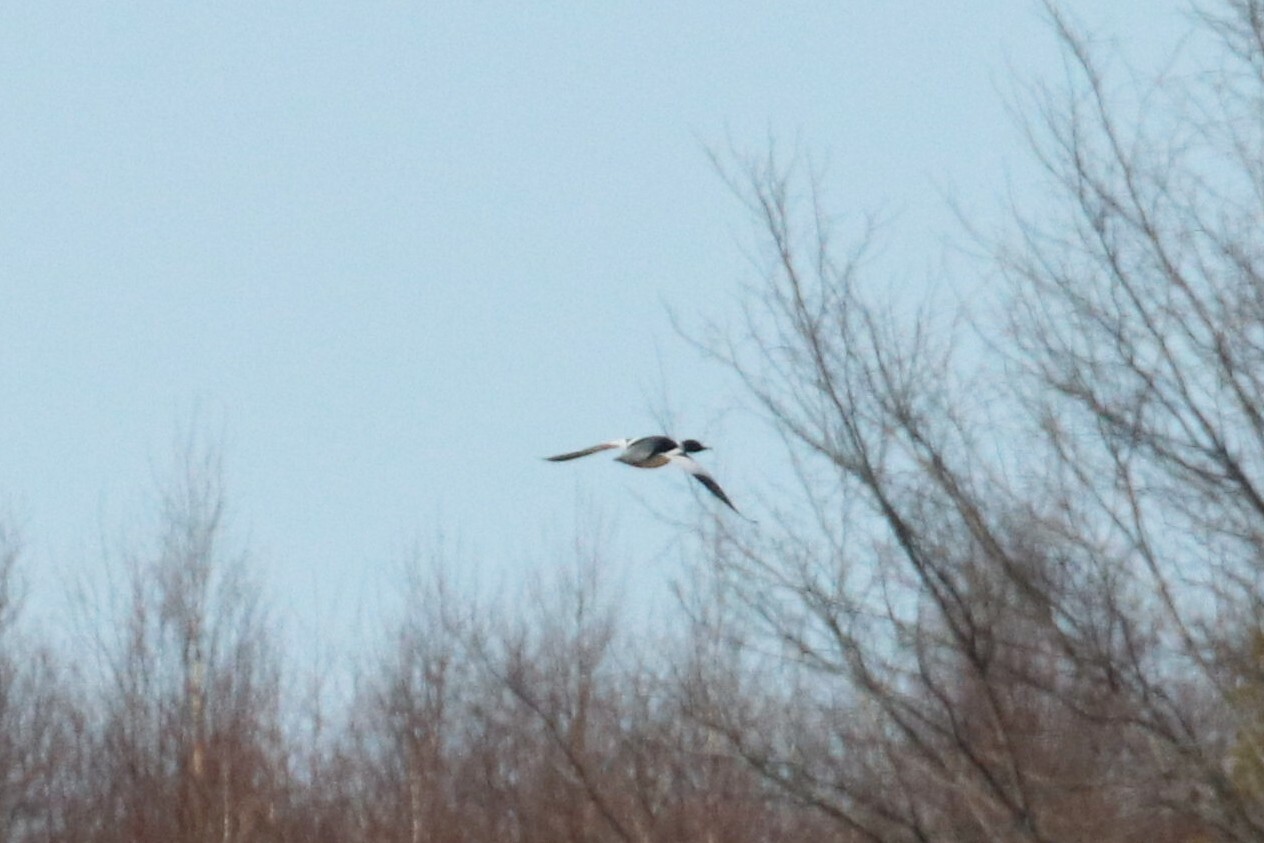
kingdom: Animalia
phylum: Chordata
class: Aves
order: Anseriformes
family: Anatidae
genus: Mergus
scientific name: Mergus merganser
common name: Common merganser
